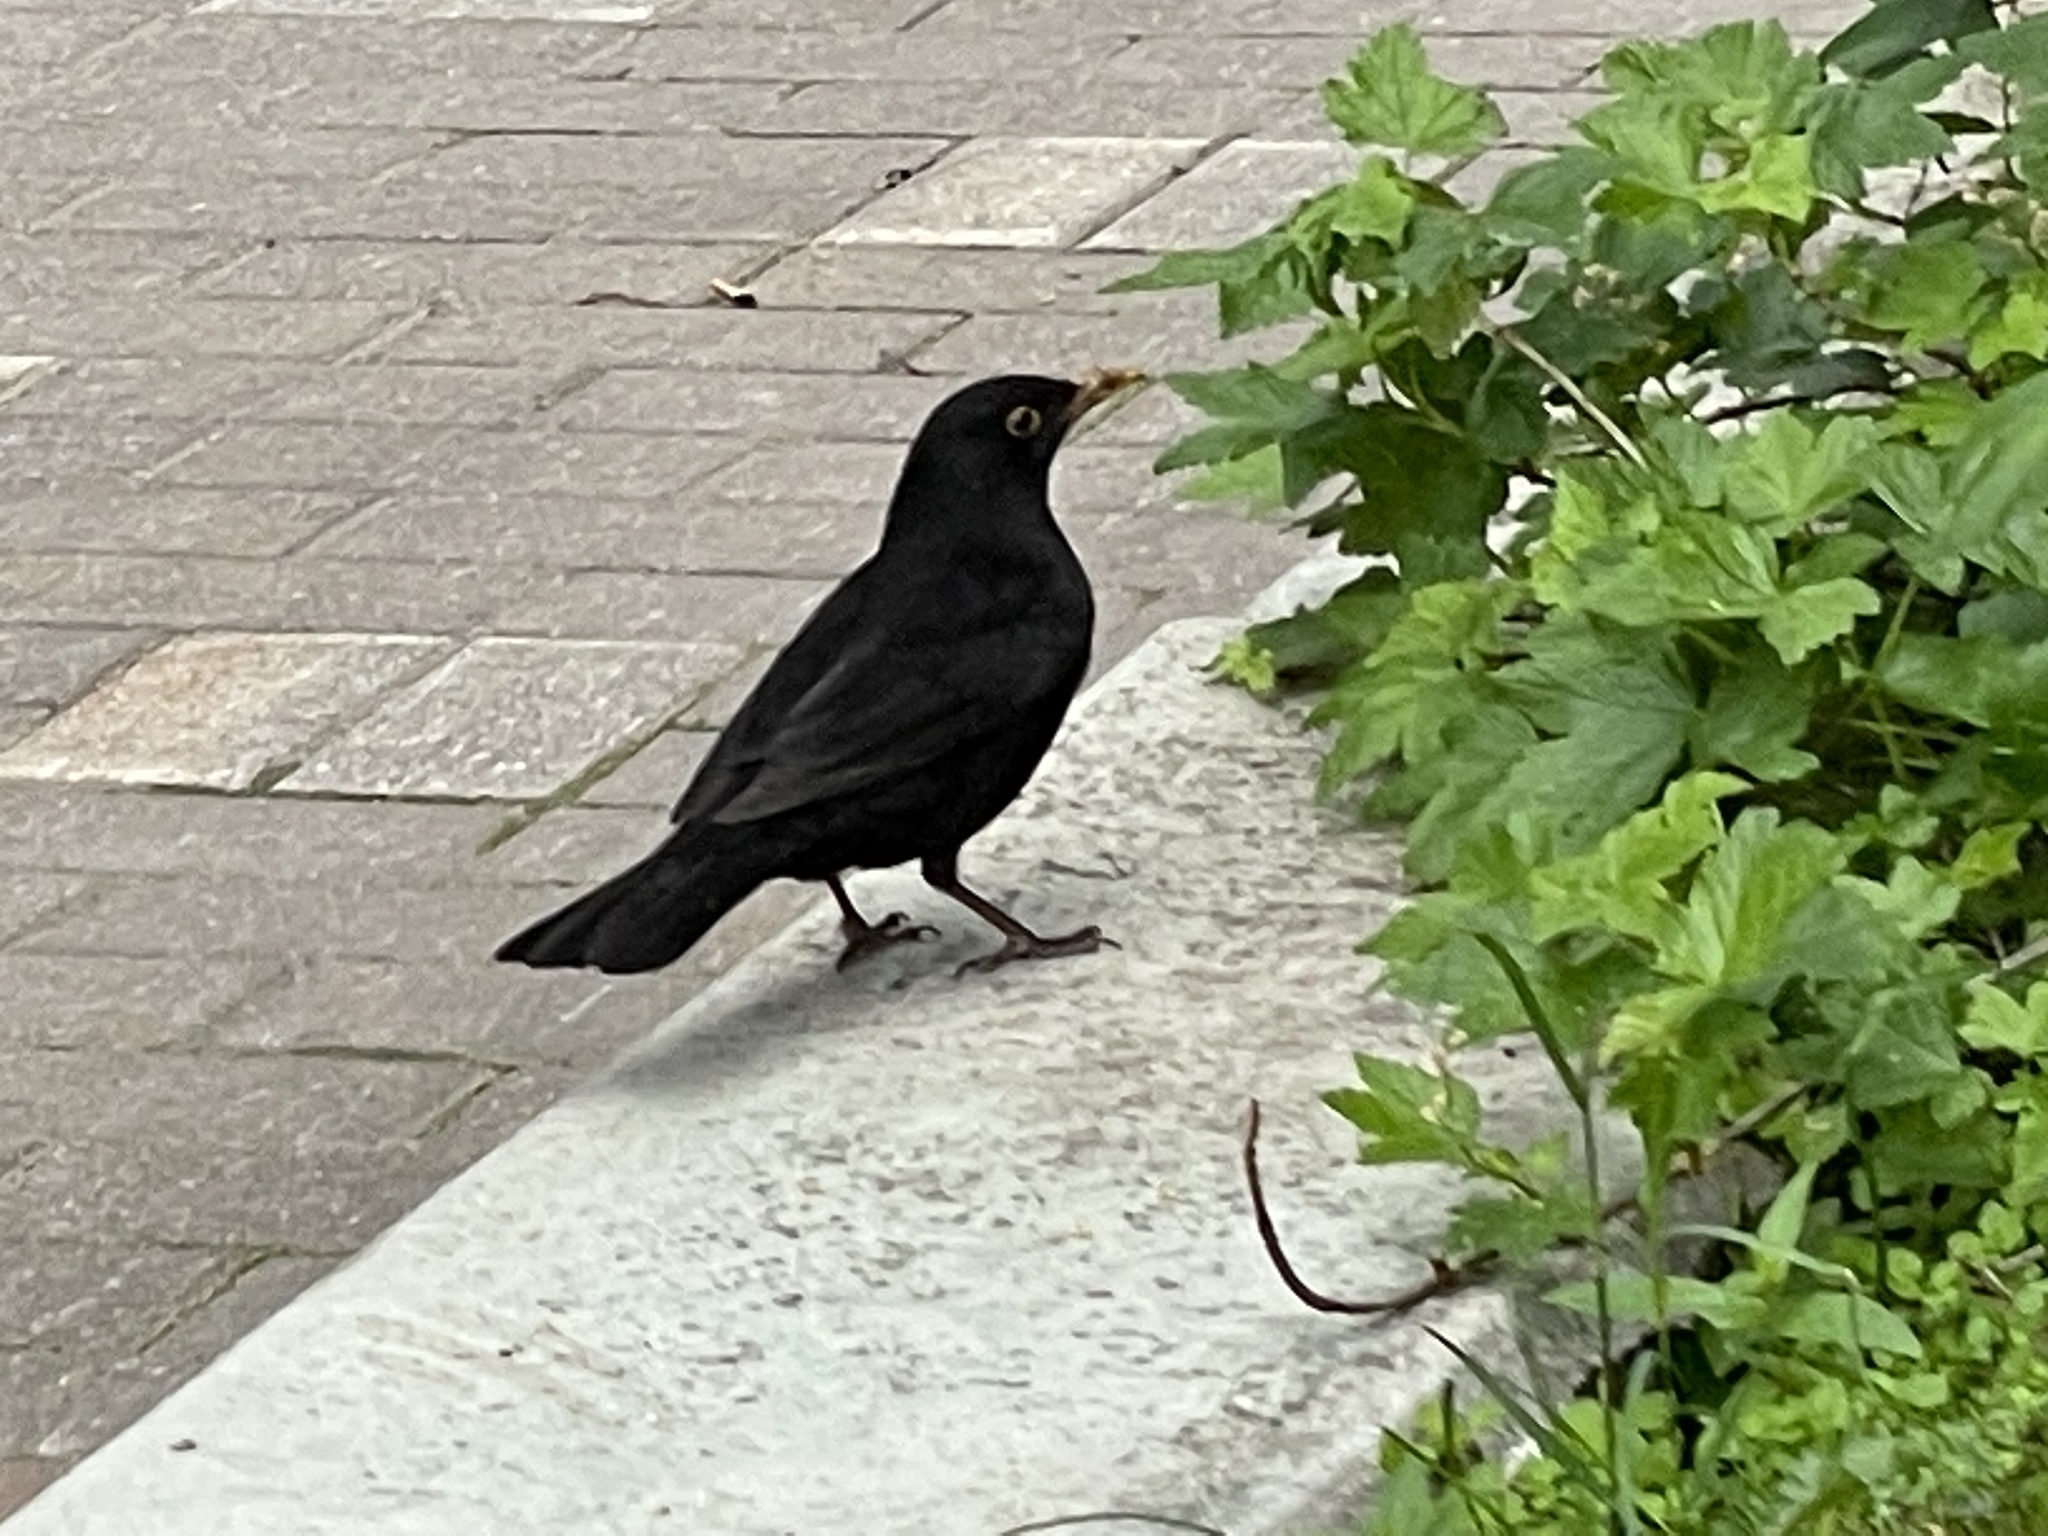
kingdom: Animalia
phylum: Chordata
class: Aves
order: Passeriformes
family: Turdidae
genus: Turdus
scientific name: Turdus merula
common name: Common blackbird
